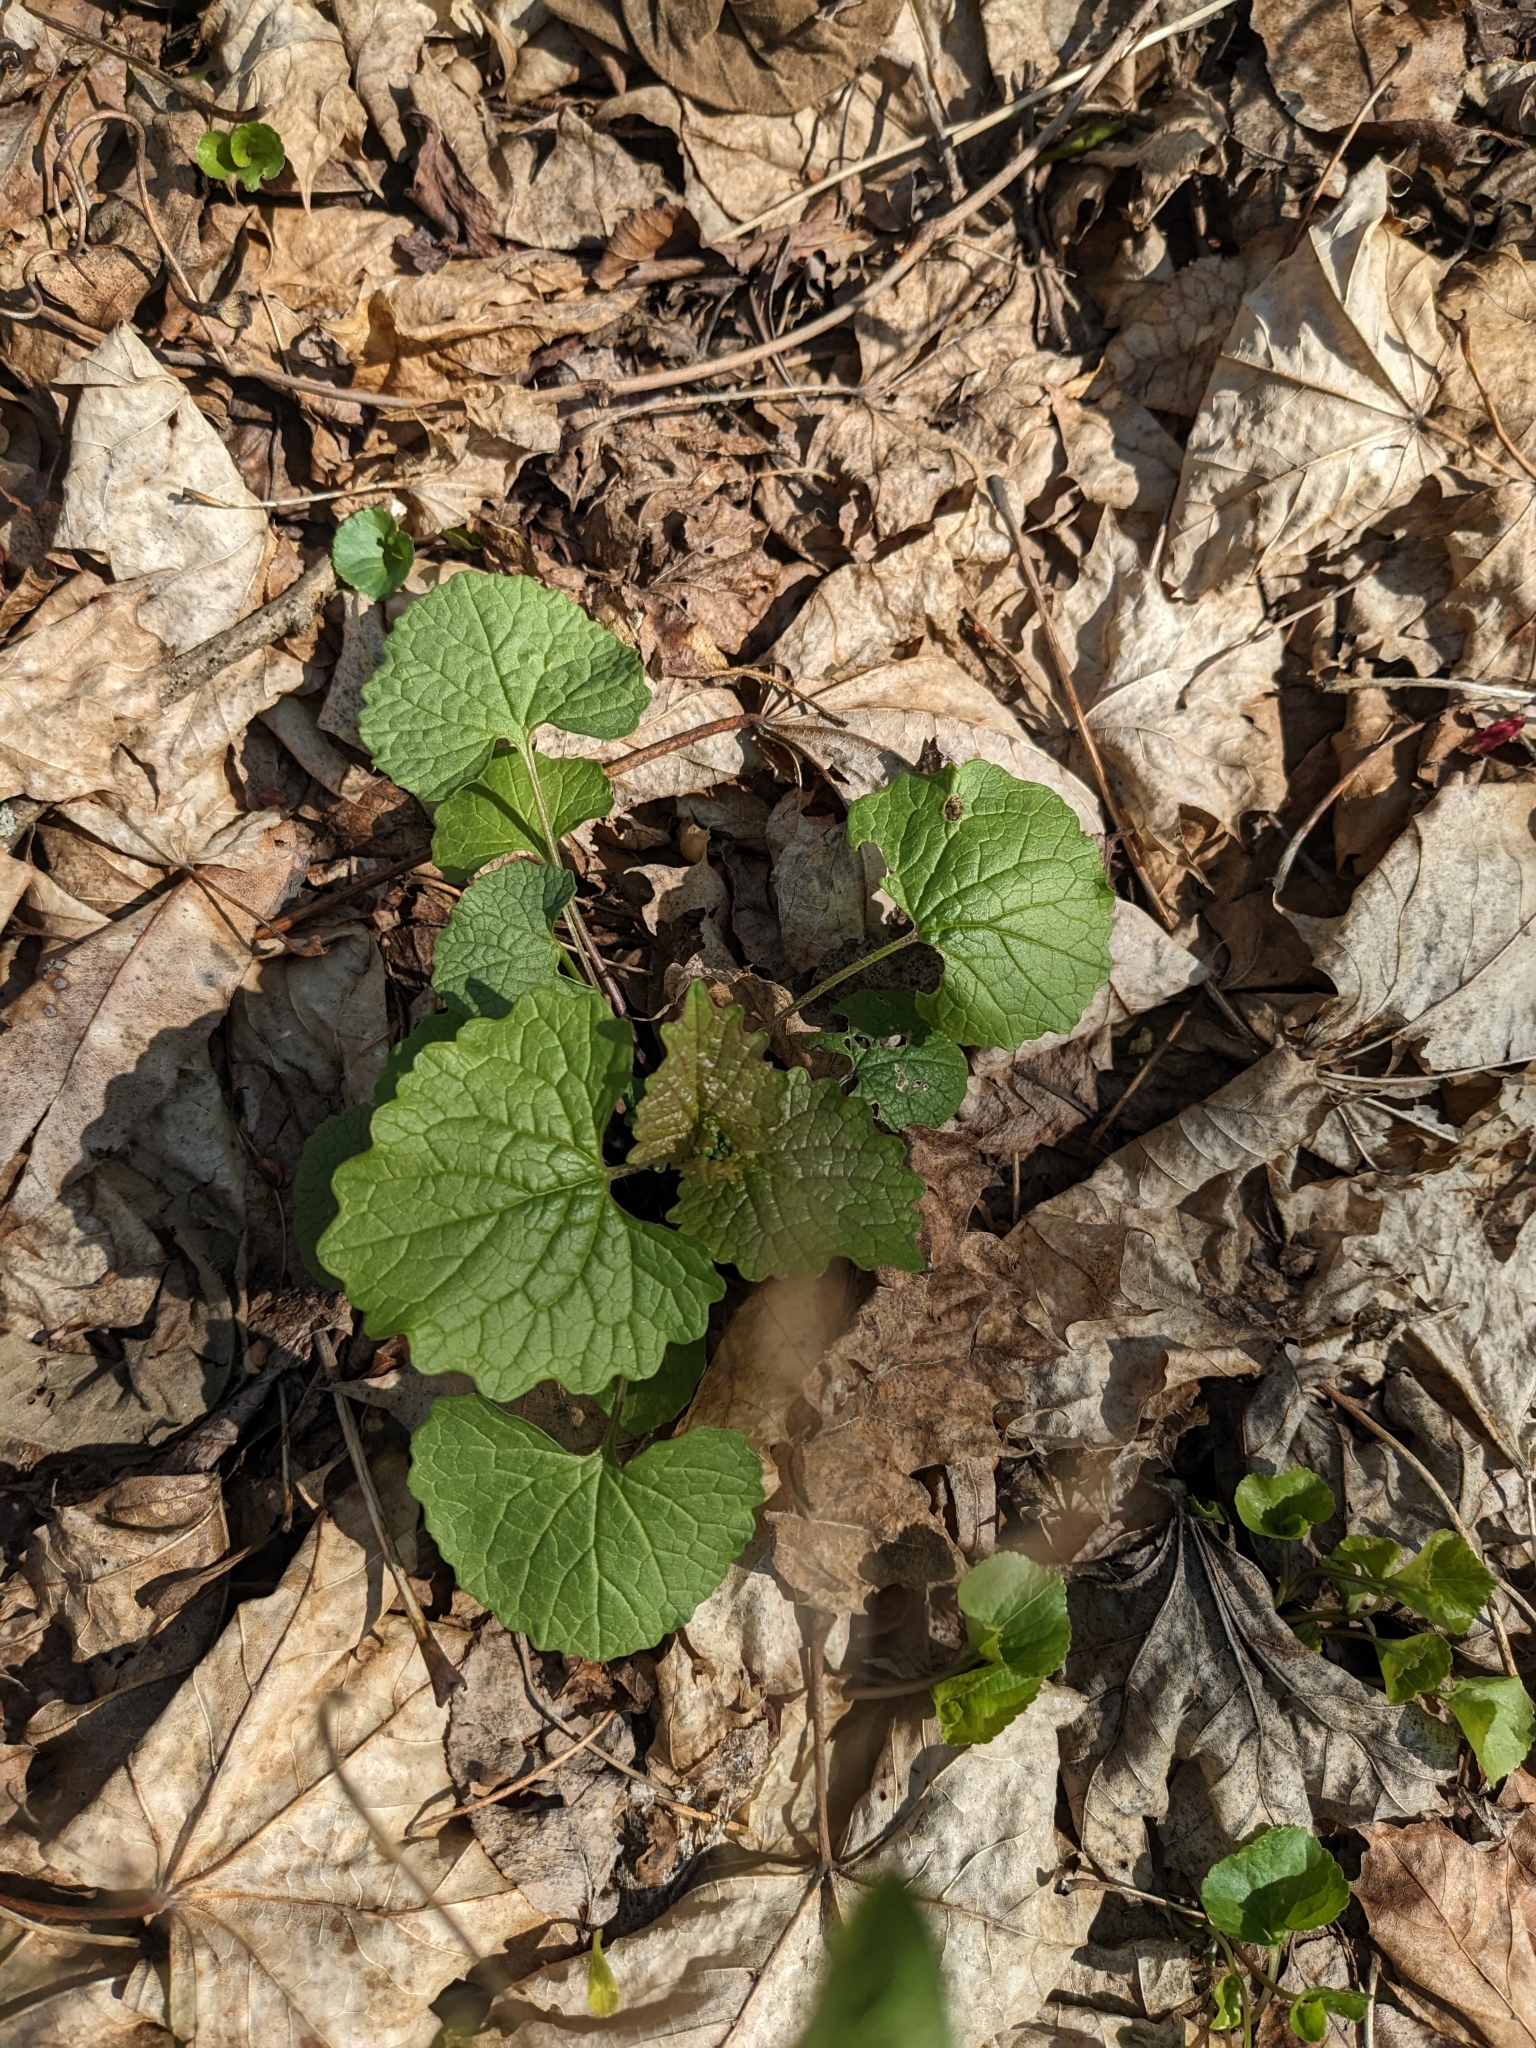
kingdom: Plantae
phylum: Tracheophyta
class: Magnoliopsida
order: Brassicales
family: Brassicaceae
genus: Alliaria
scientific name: Alliaria petiolata
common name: Garlic mustard
